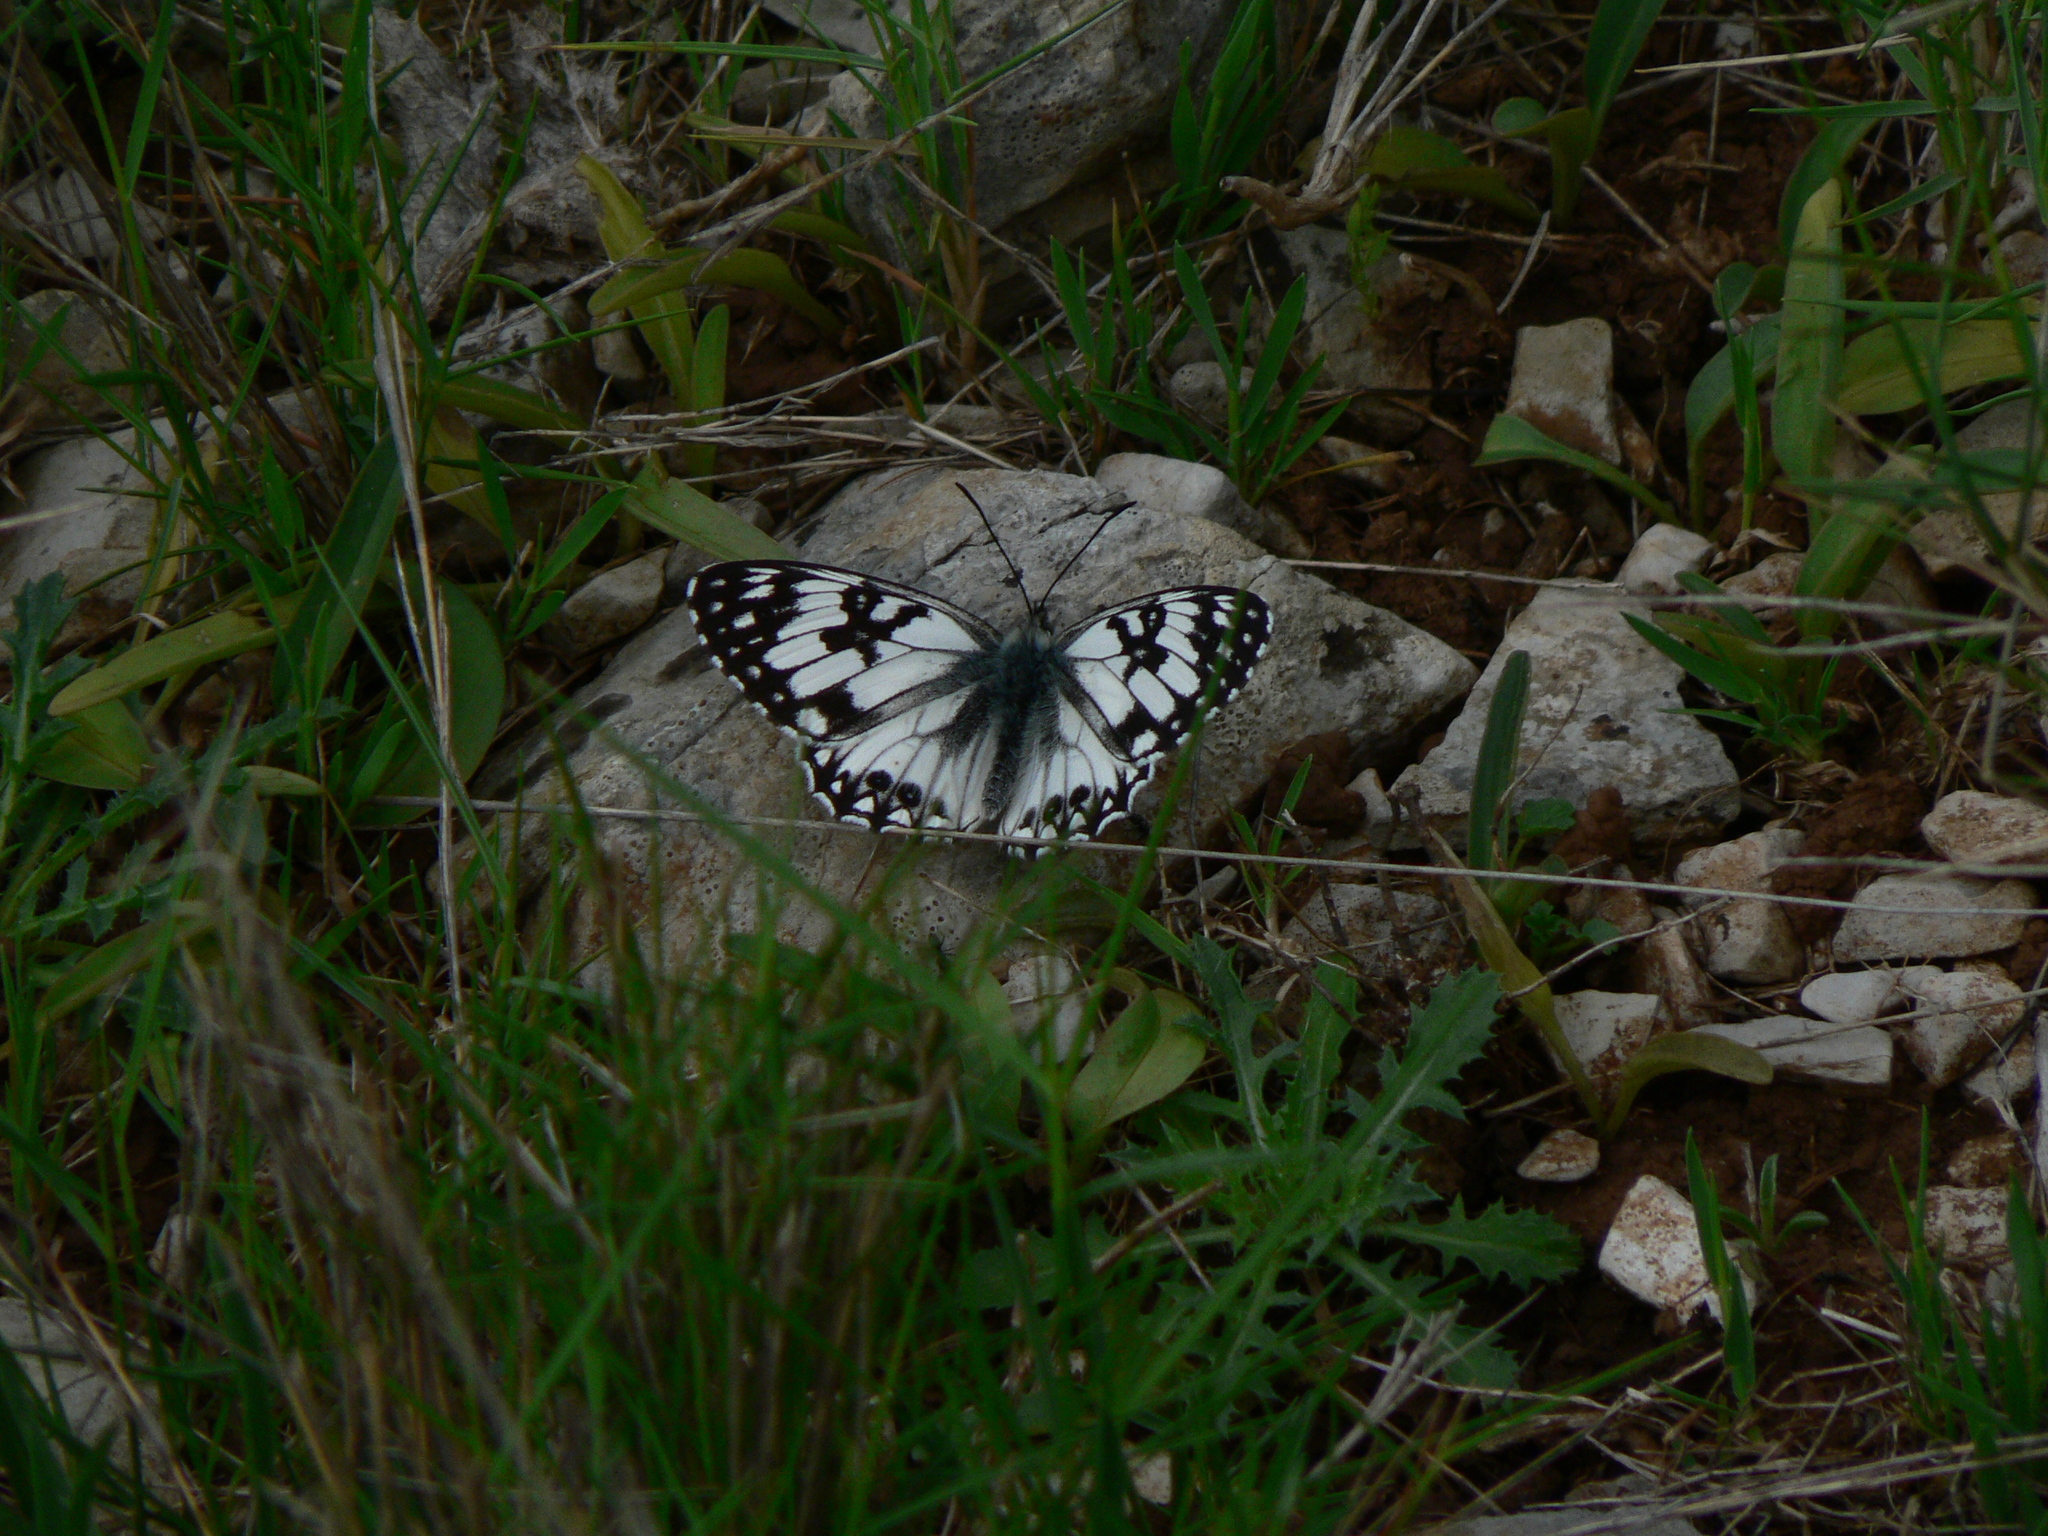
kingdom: Animalia
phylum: Arthropoda
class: Insecta
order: Lepidoptera
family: Nymphalidae
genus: Melanargia
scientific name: Melanargia occitanica
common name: Western marbled white
